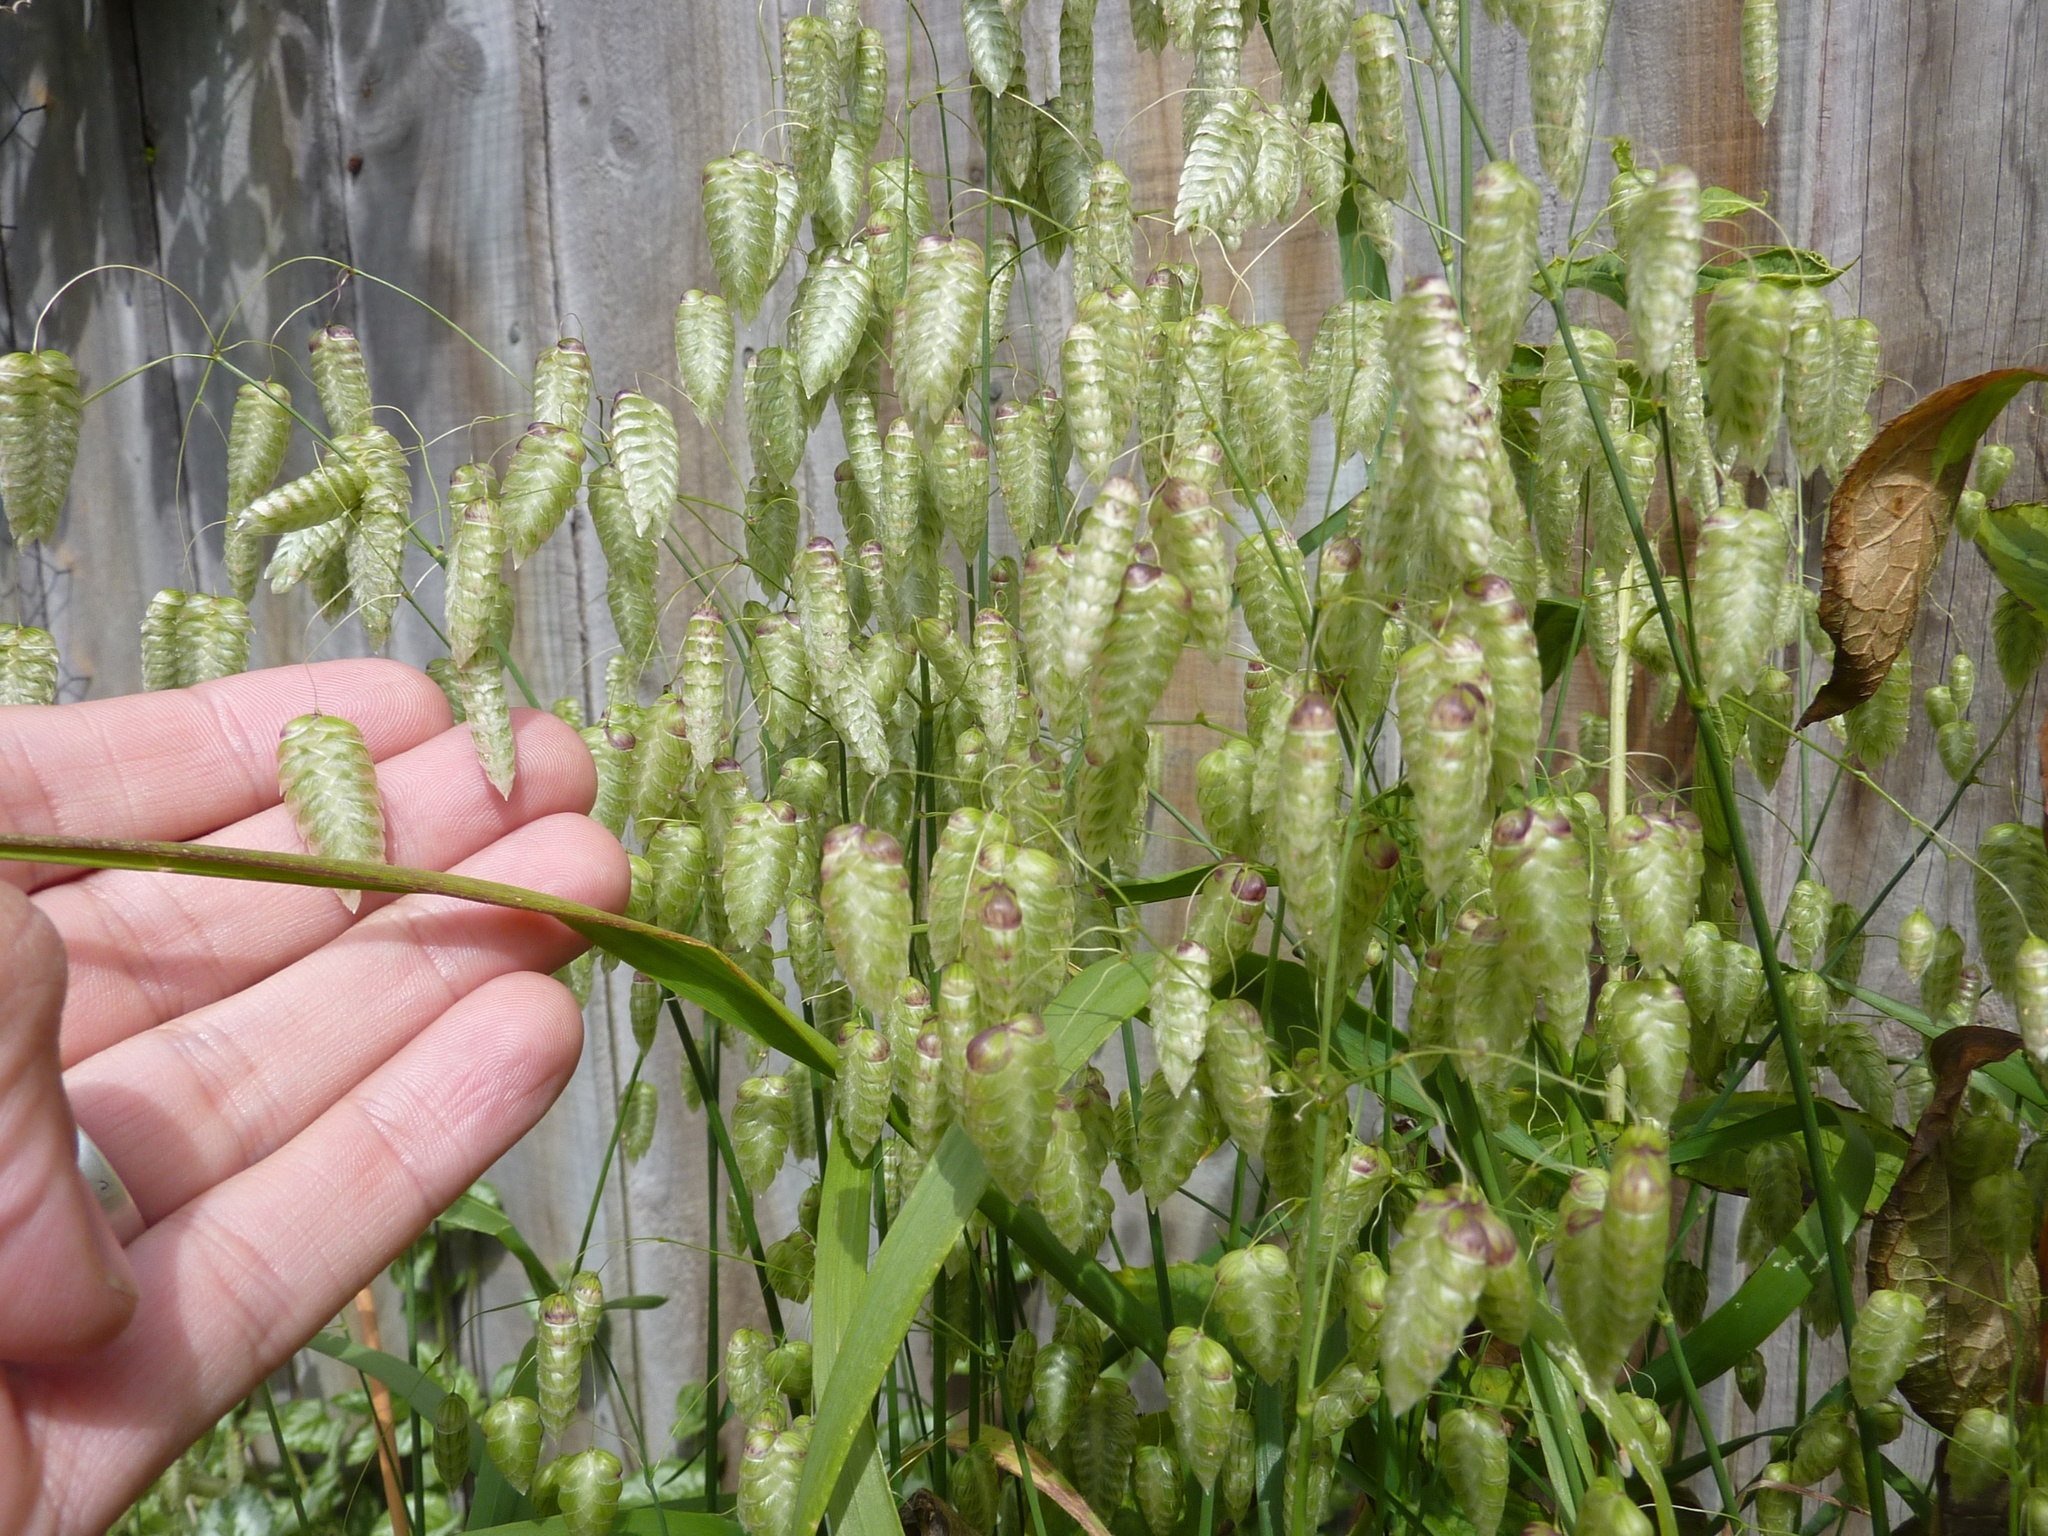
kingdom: Plantae
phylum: Tracheophyta
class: Liliopsida
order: Poales
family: Poaceae
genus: Briza
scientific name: Briza maxima
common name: Big quakinggrass
